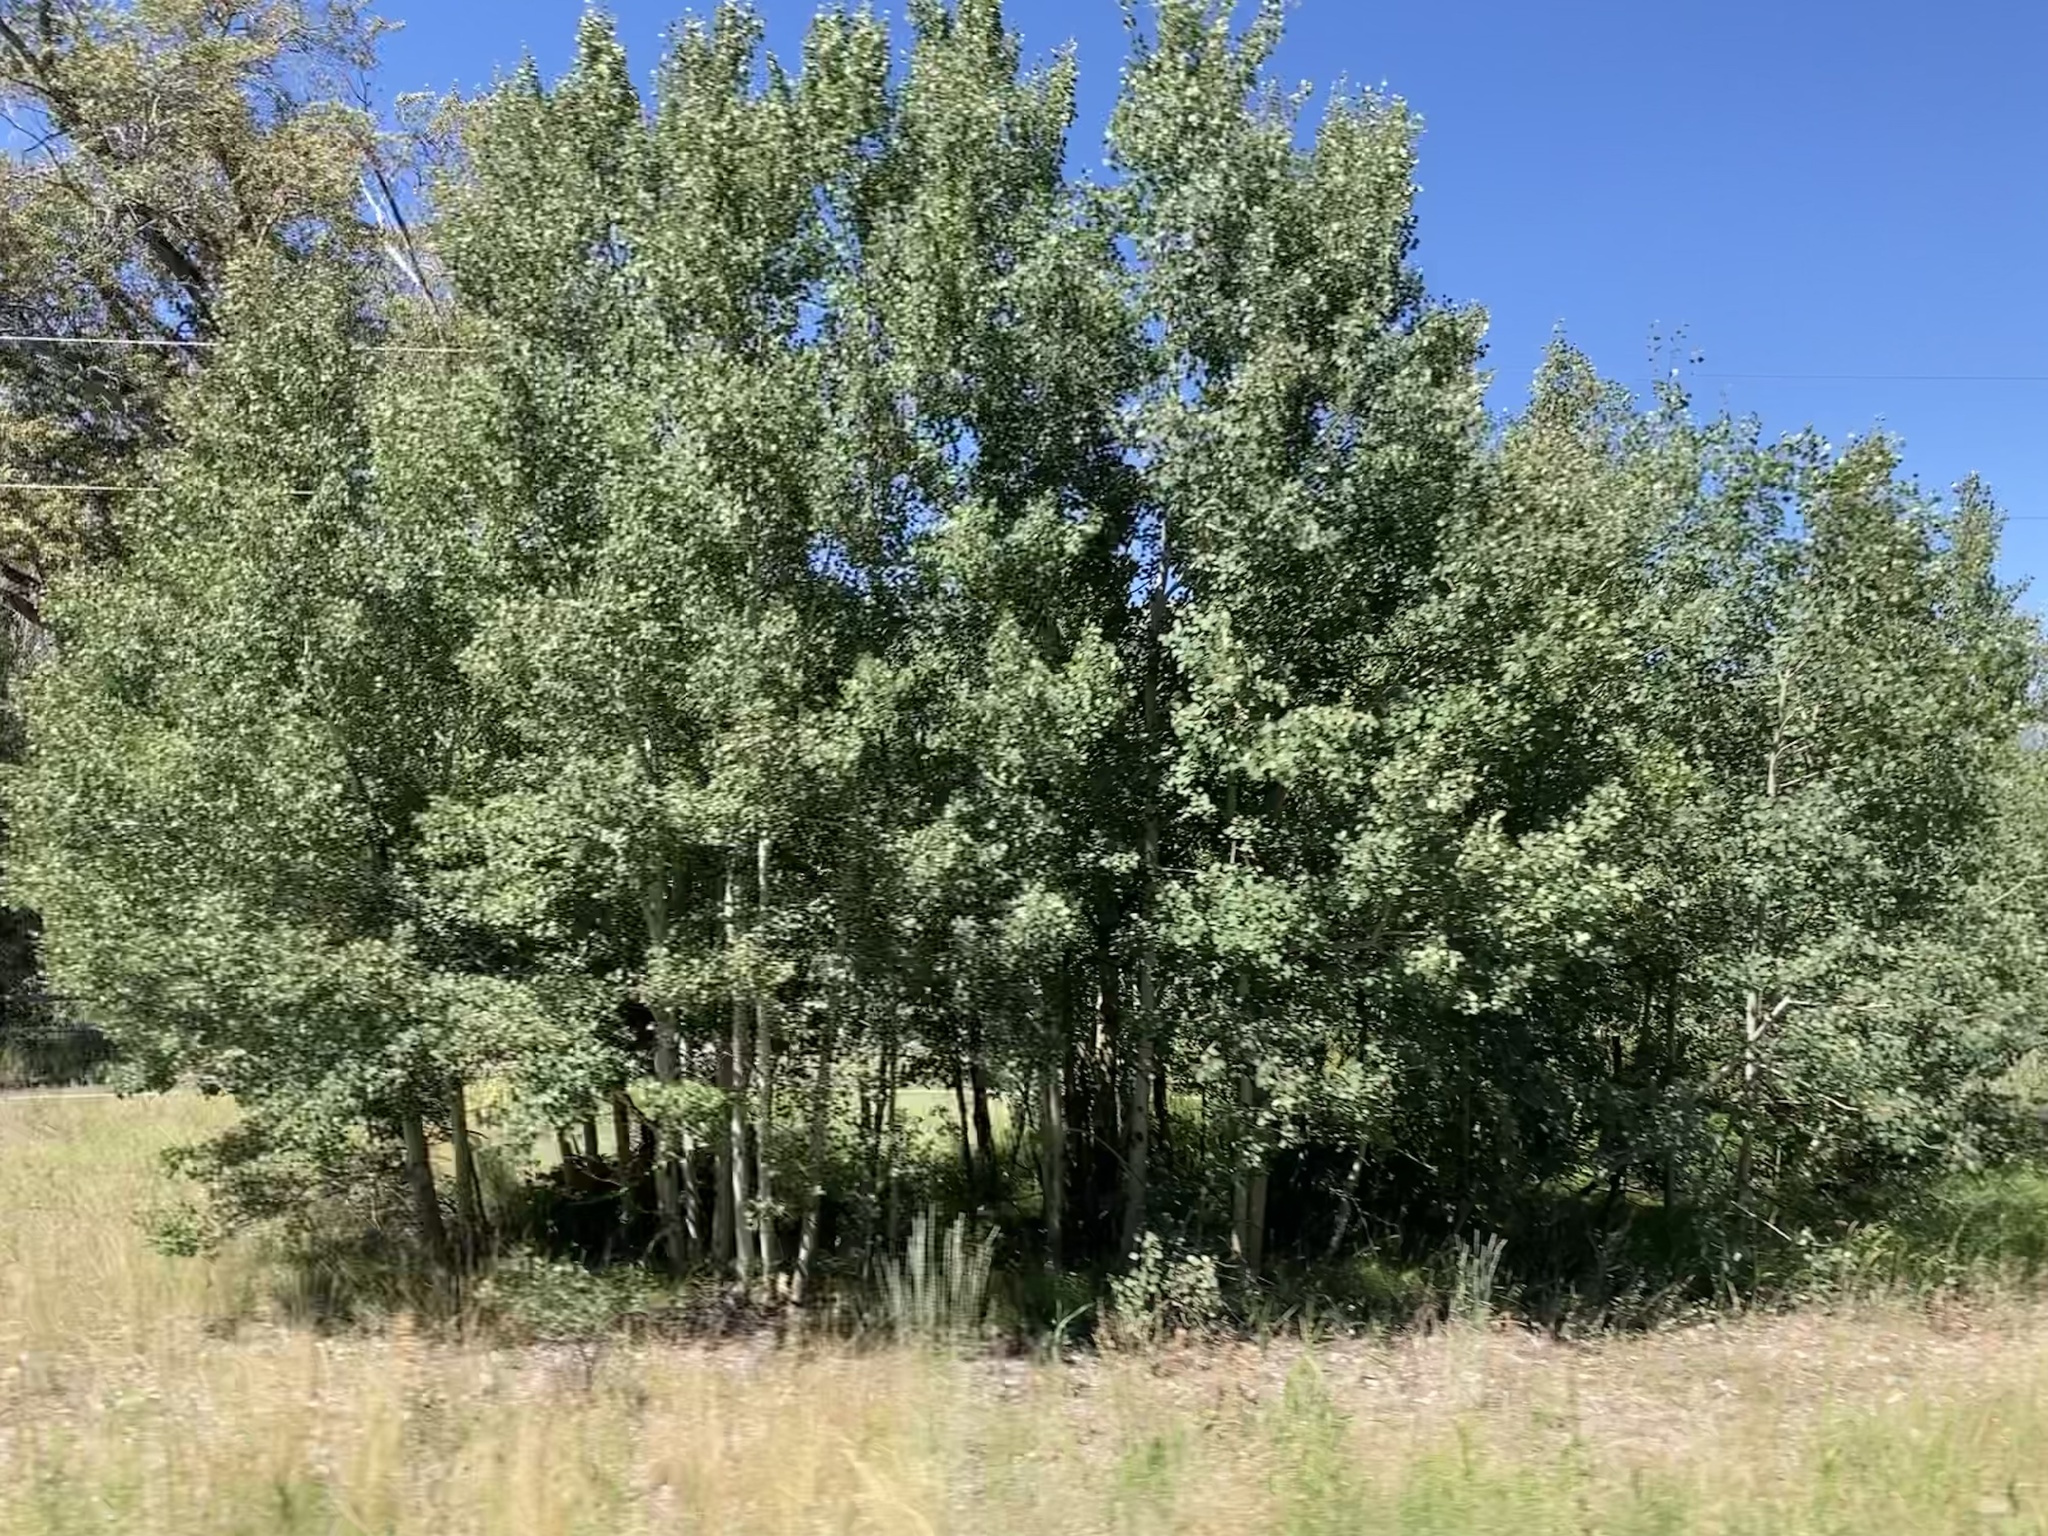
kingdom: Plantae
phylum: Tracheophyta
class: Magnoliopsida
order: Malpighiales
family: Salicaceae
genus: Populus
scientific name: Populus tremuloides
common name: Quaking aspen
